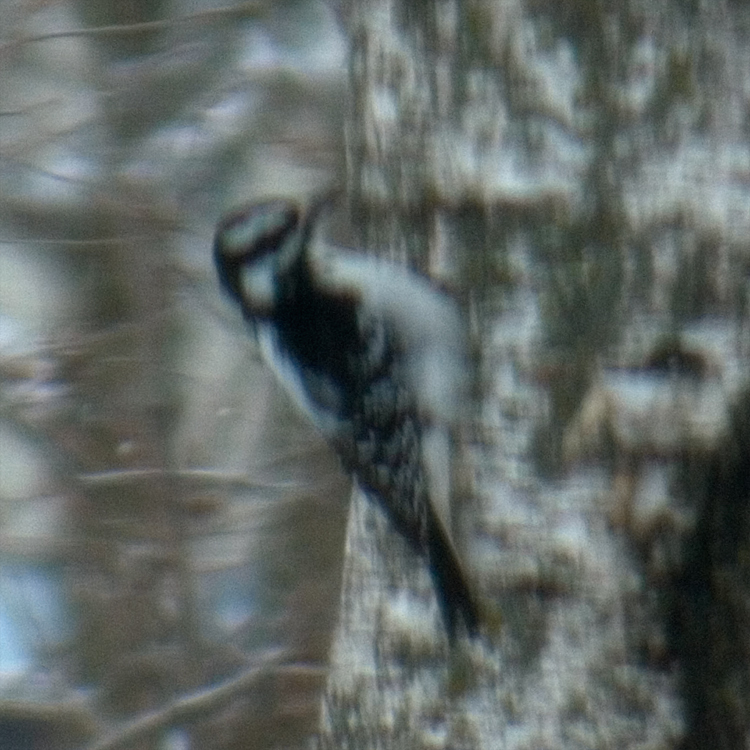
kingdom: Animalia
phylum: Chordata
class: Aves
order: Piciformes
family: Picidae
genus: Leuconotopicus
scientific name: Leuconotopicus villosus
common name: Hairy woodpecker
